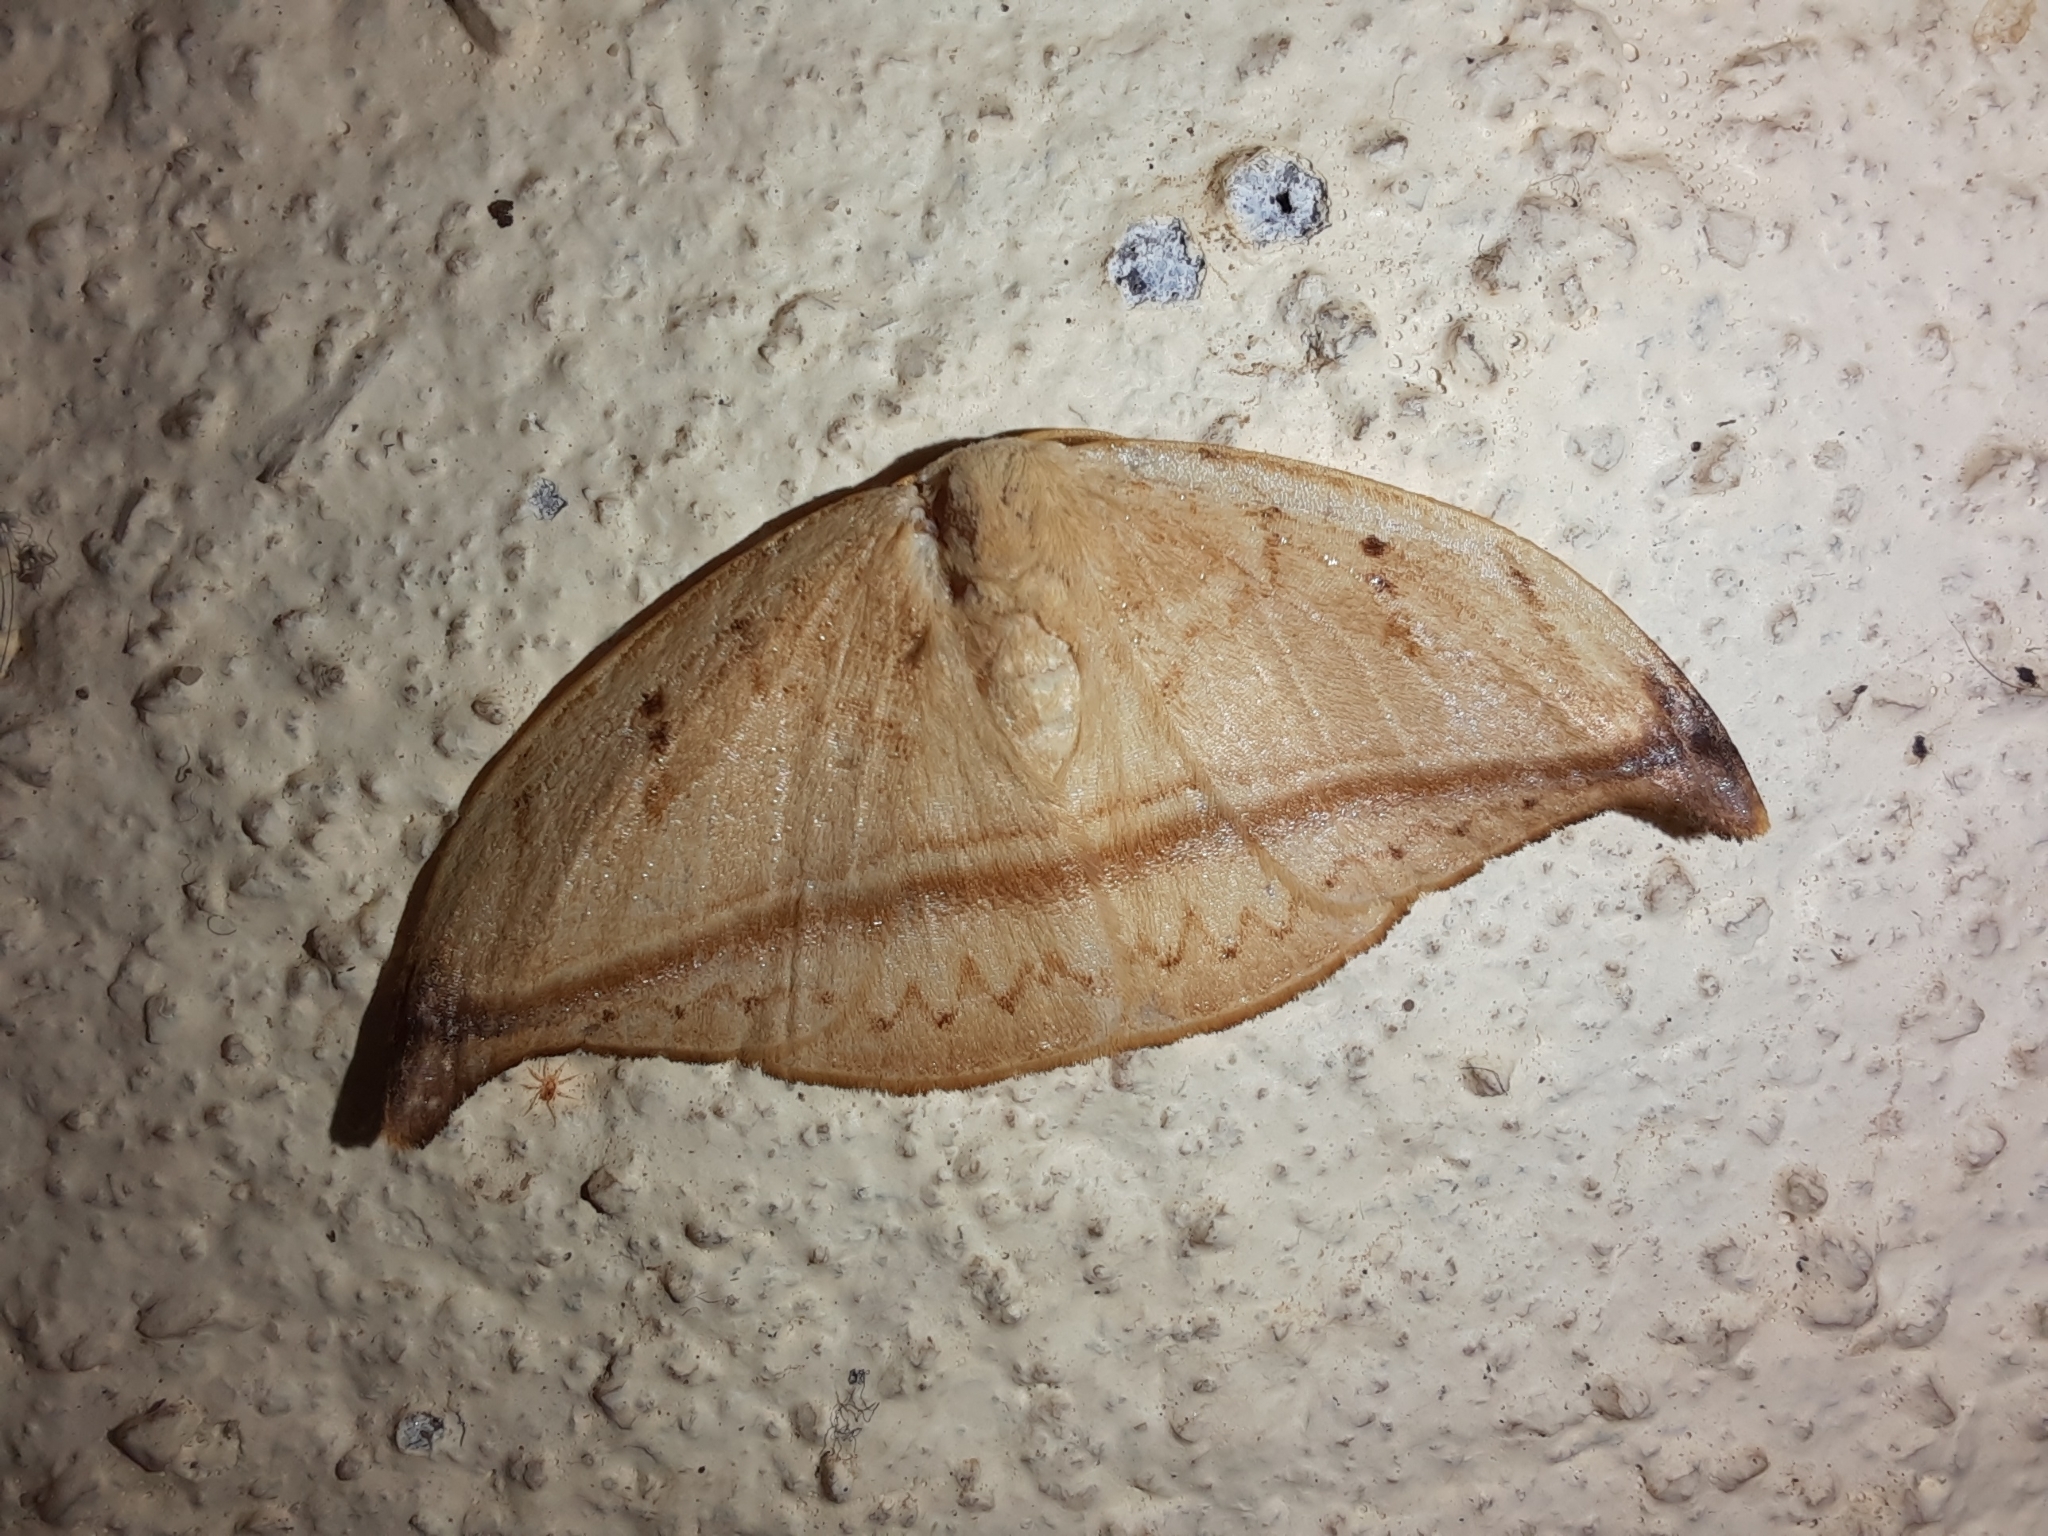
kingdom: Animalia
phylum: Arthropoda
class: Insecta
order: Lepidoptera
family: Drepanidae
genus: Callidrepana
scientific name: Callidrepana patrana
